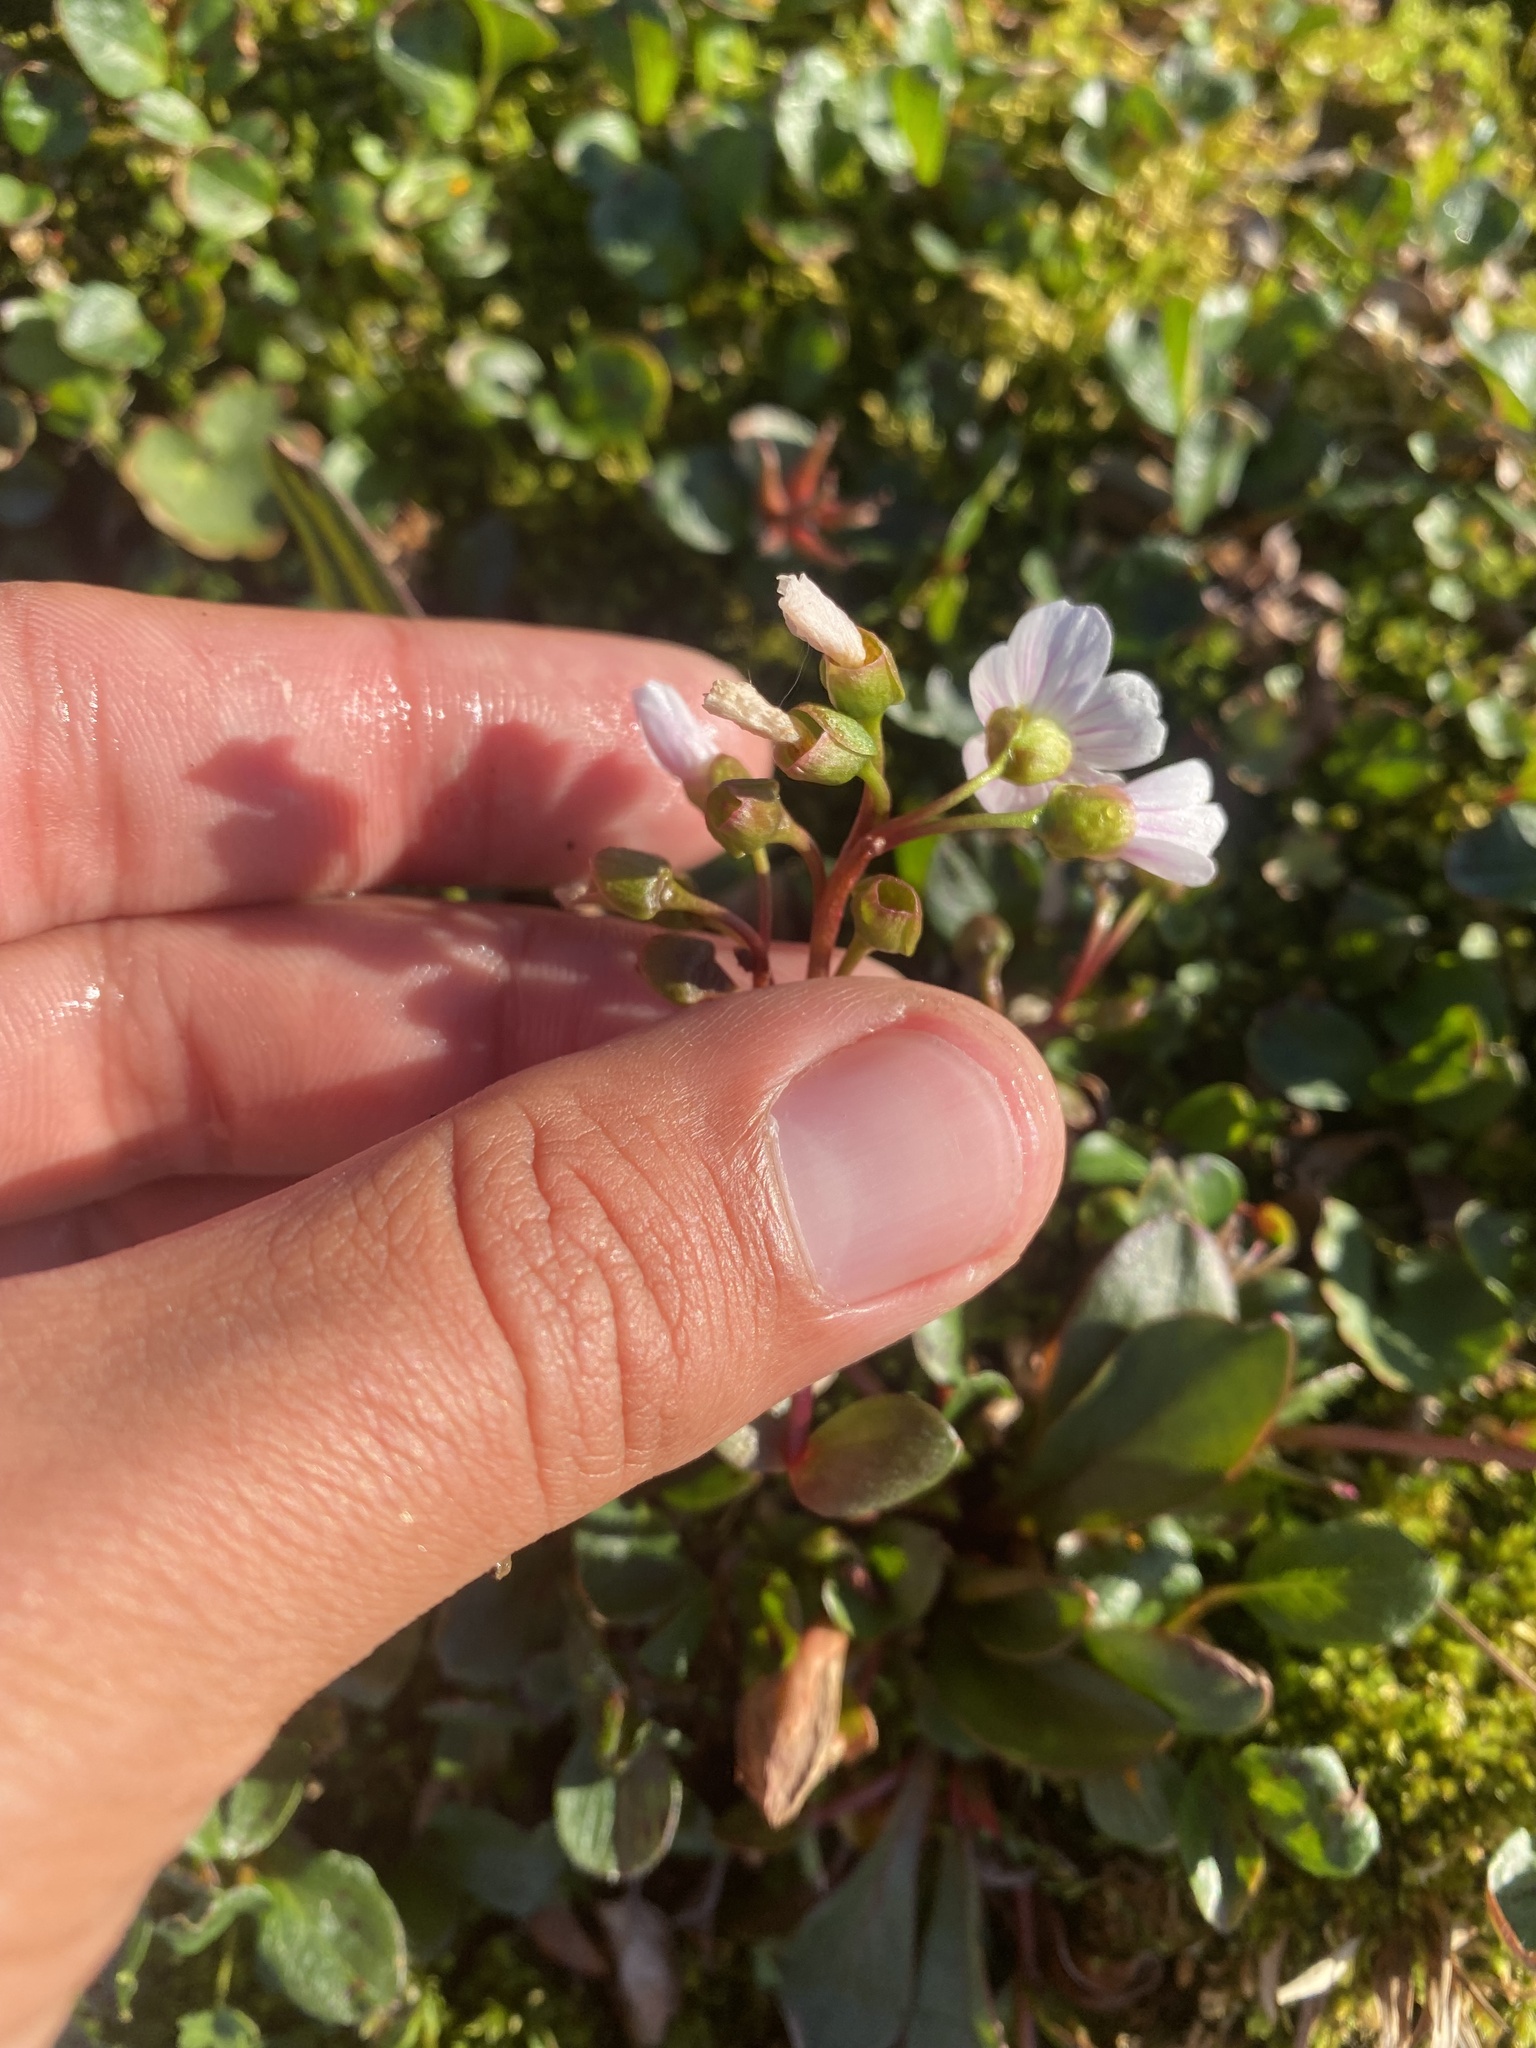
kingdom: Plantae
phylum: Tracheophyta
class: Magnoliopsida
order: Caryophyllales
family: Montiaceae
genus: Claytonia
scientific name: Claytonia joanneana
